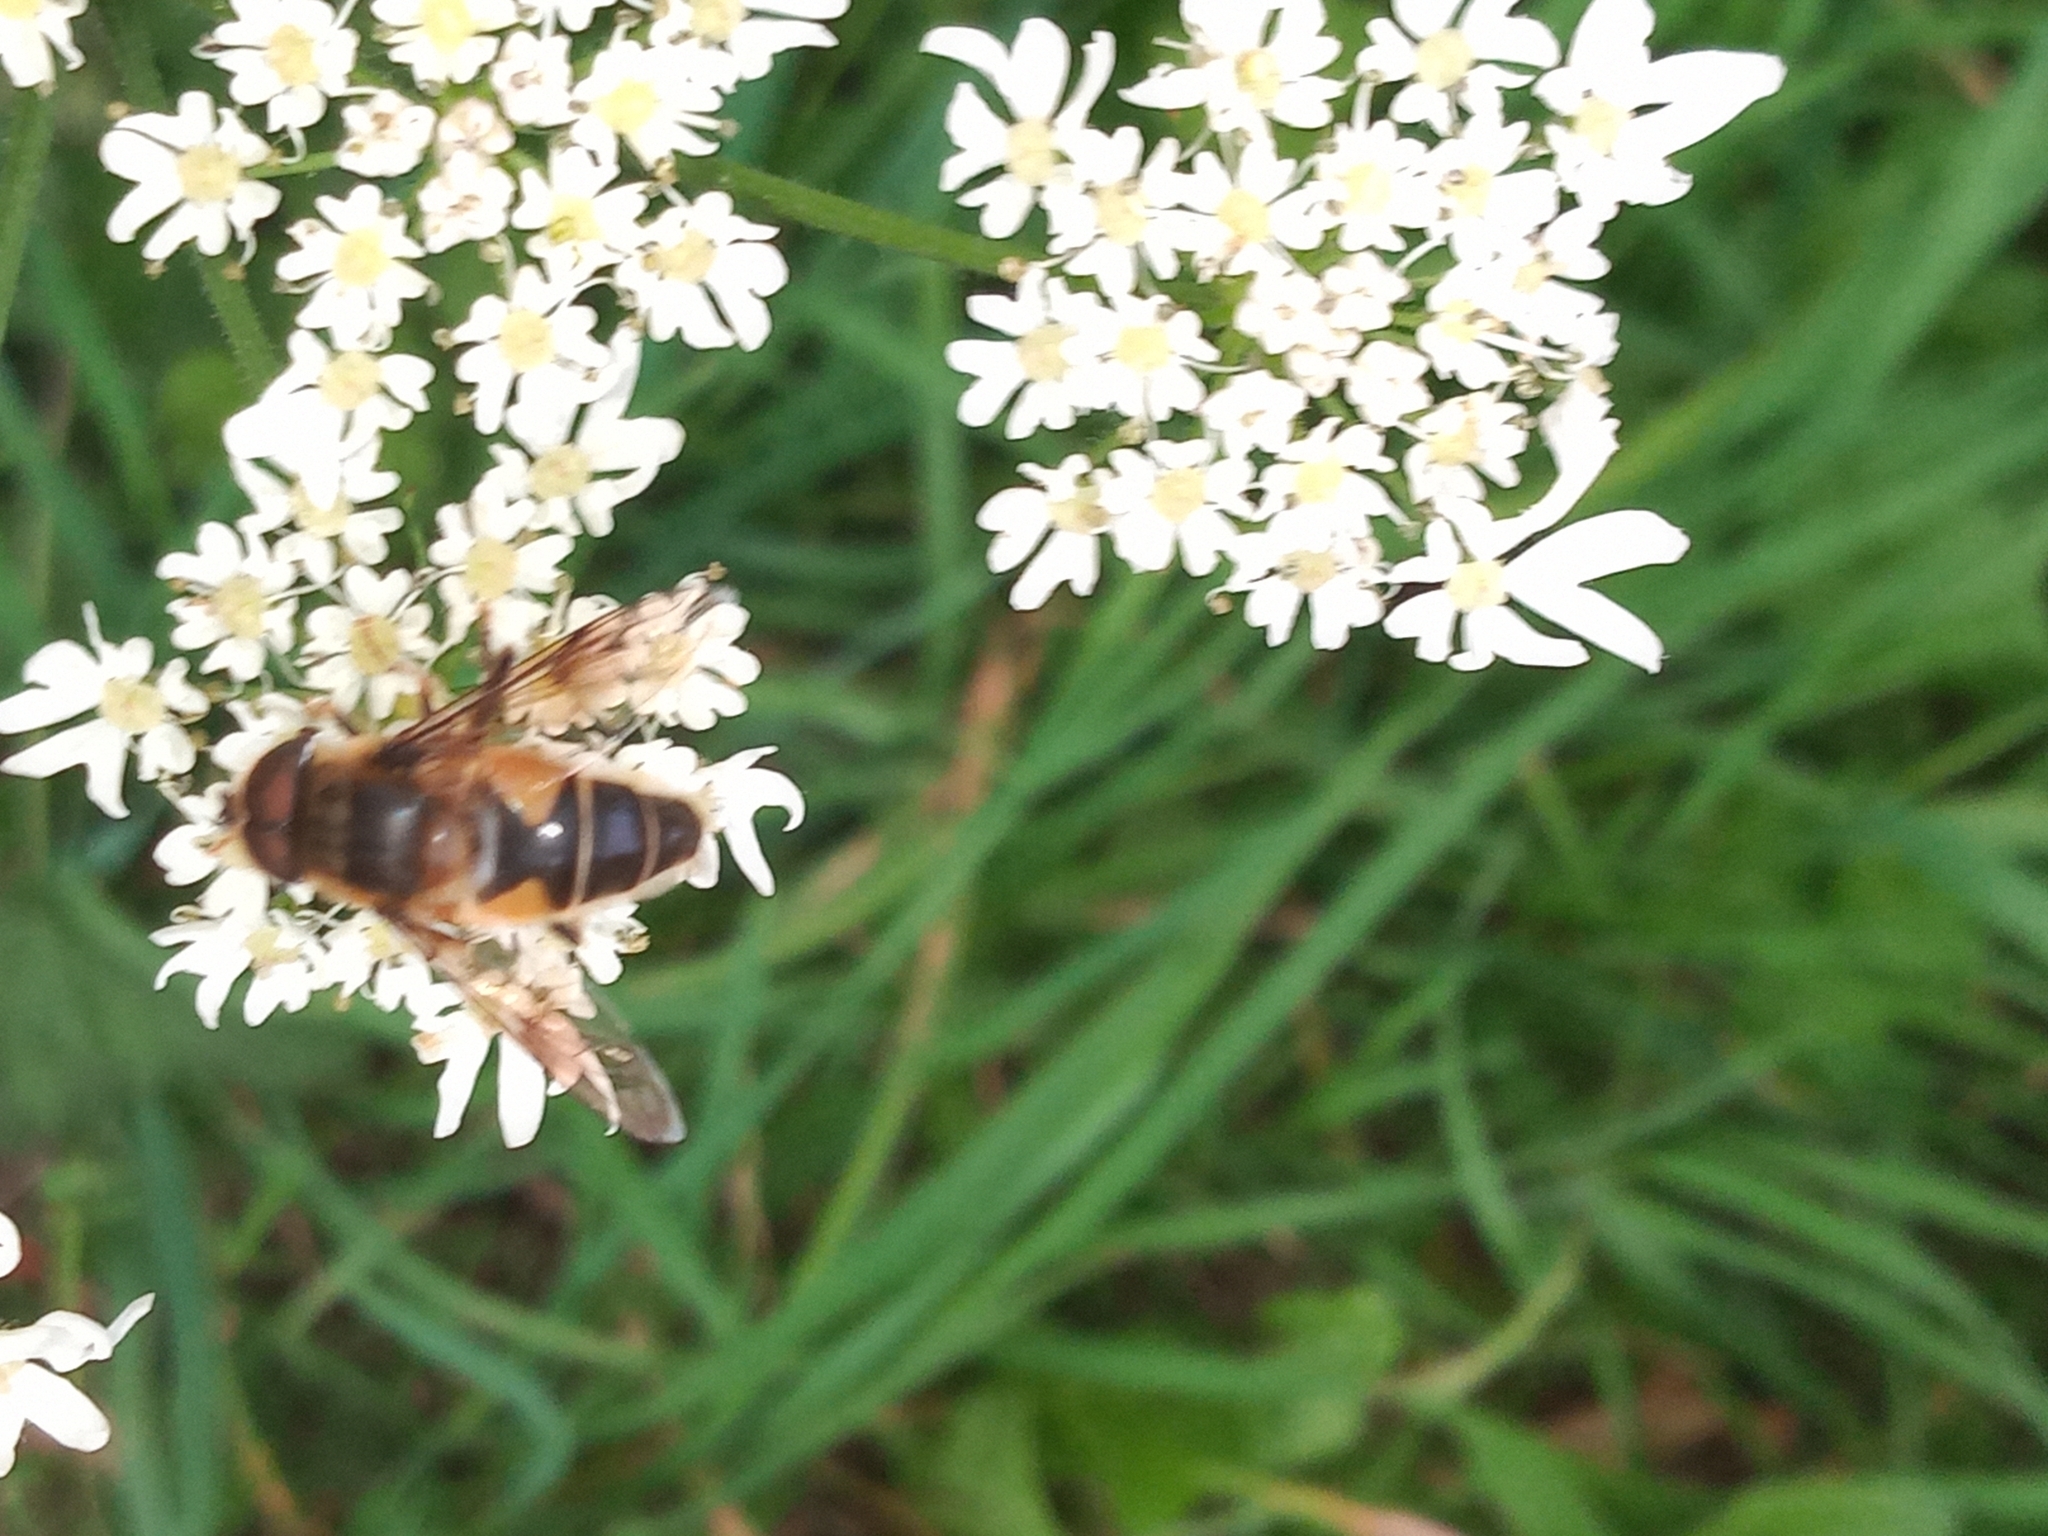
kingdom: Animalia
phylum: Arthropoda
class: Insecta
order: Diptera
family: Syrphidae
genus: Eristalis
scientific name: Eristalis pertinax
